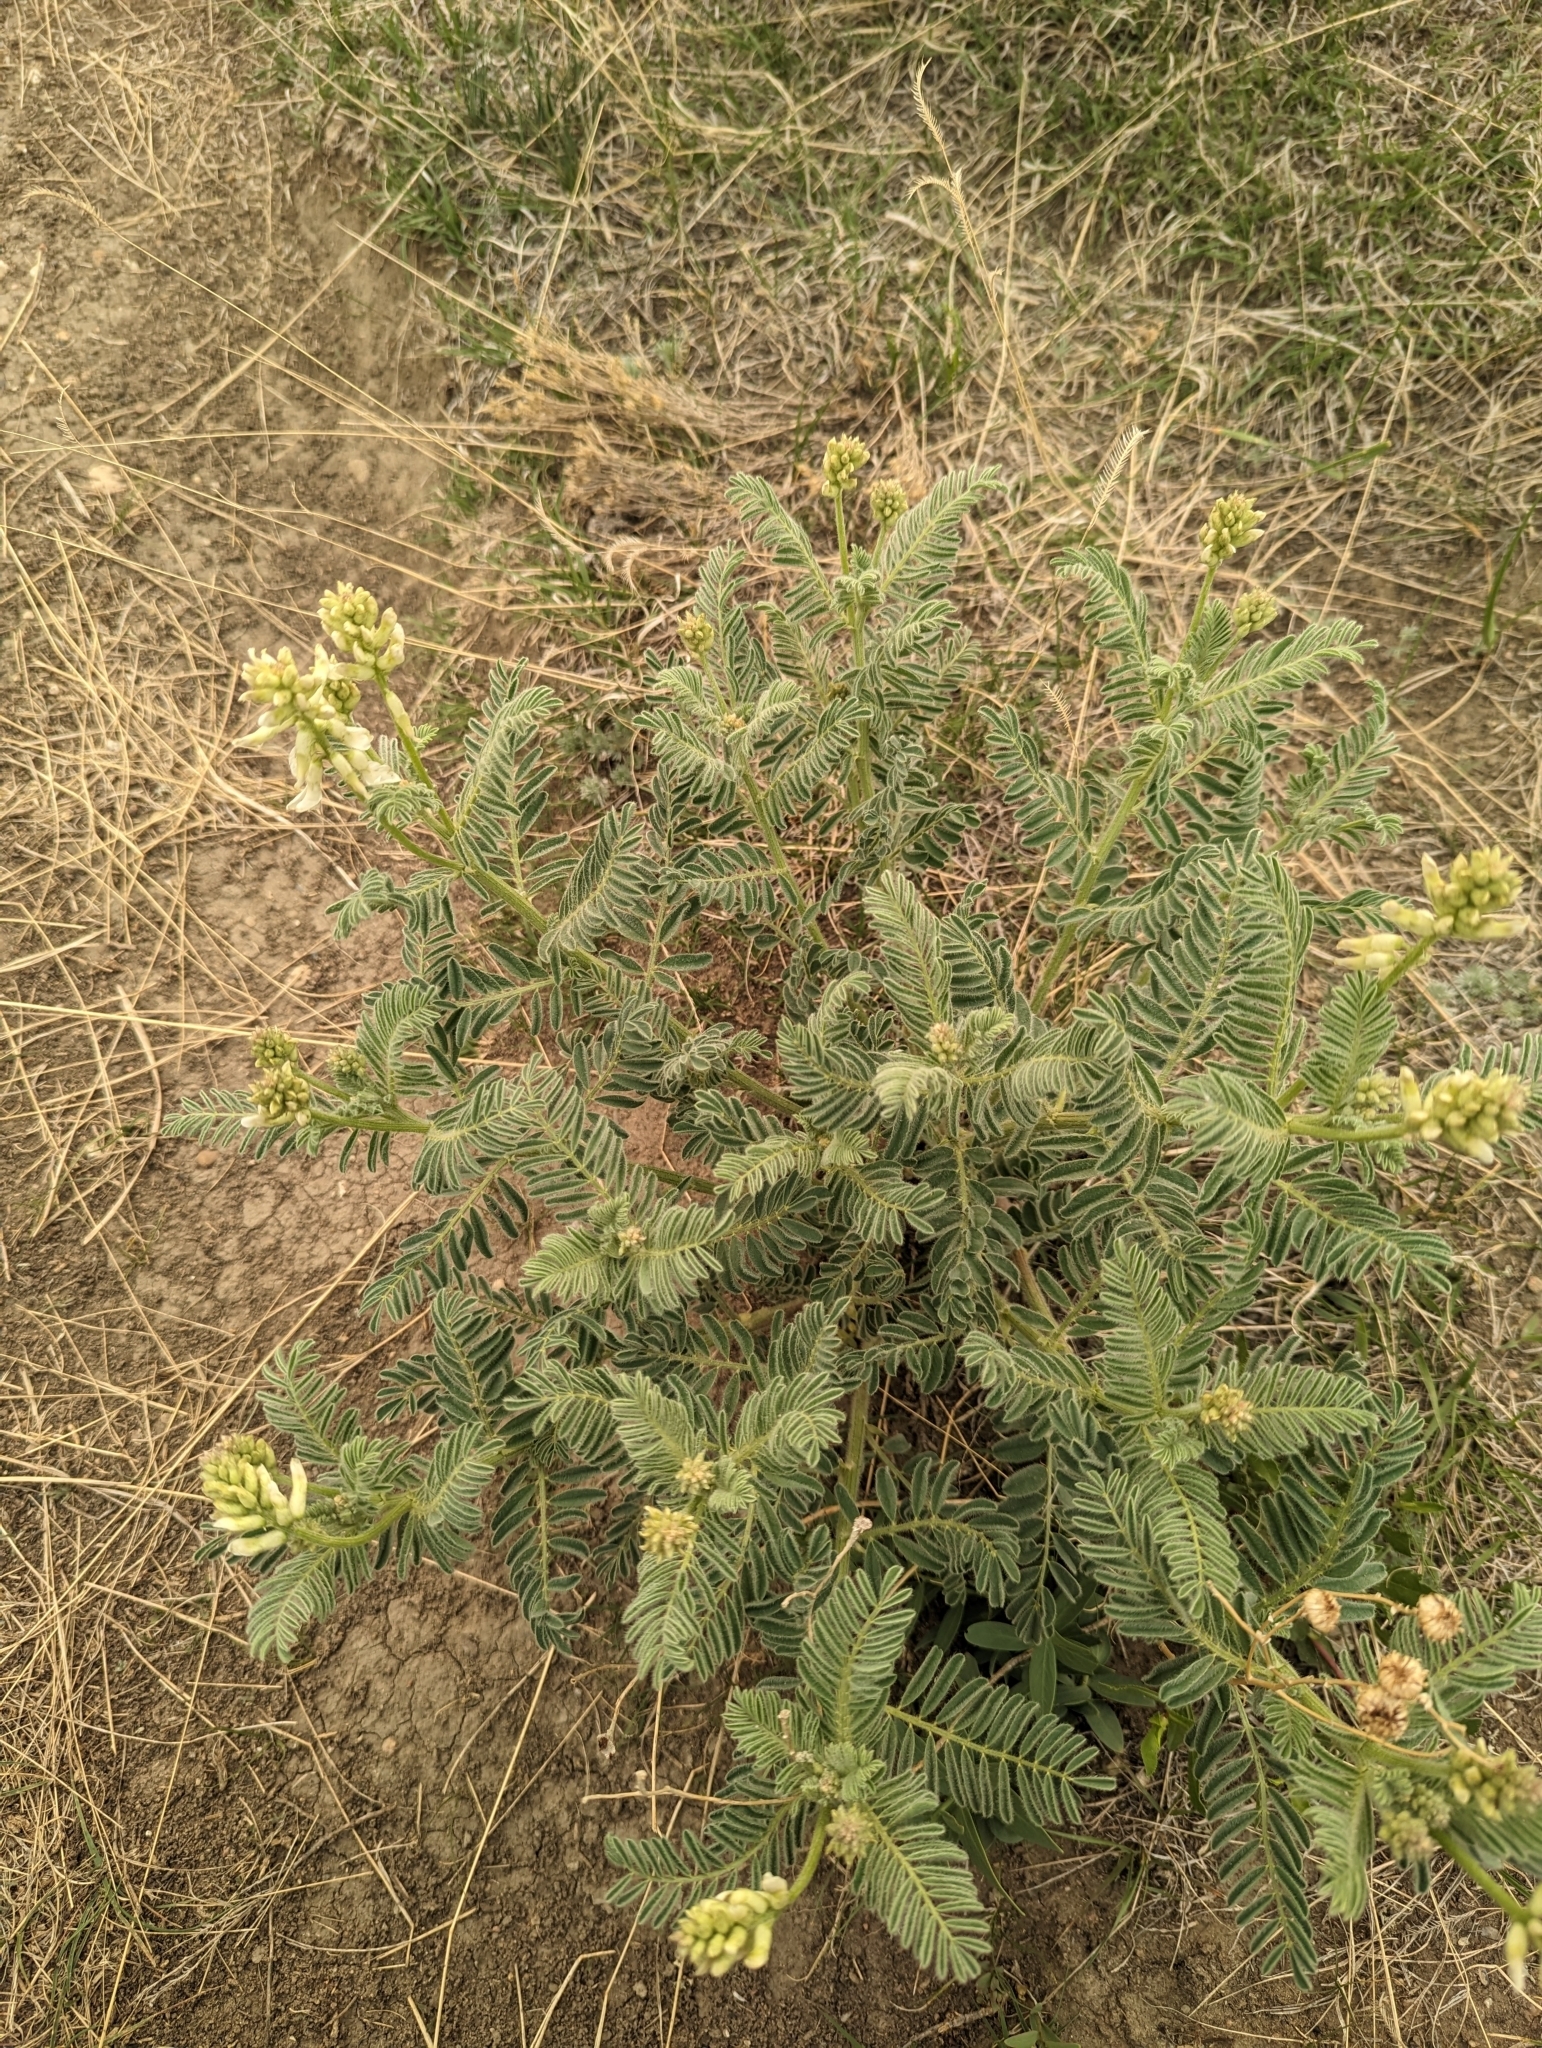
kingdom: Plantae
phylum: Tracheophyta
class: Magnoliopsida
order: Fabales
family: Fabaceae
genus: Astragalus
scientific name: Astragalus drummondii
